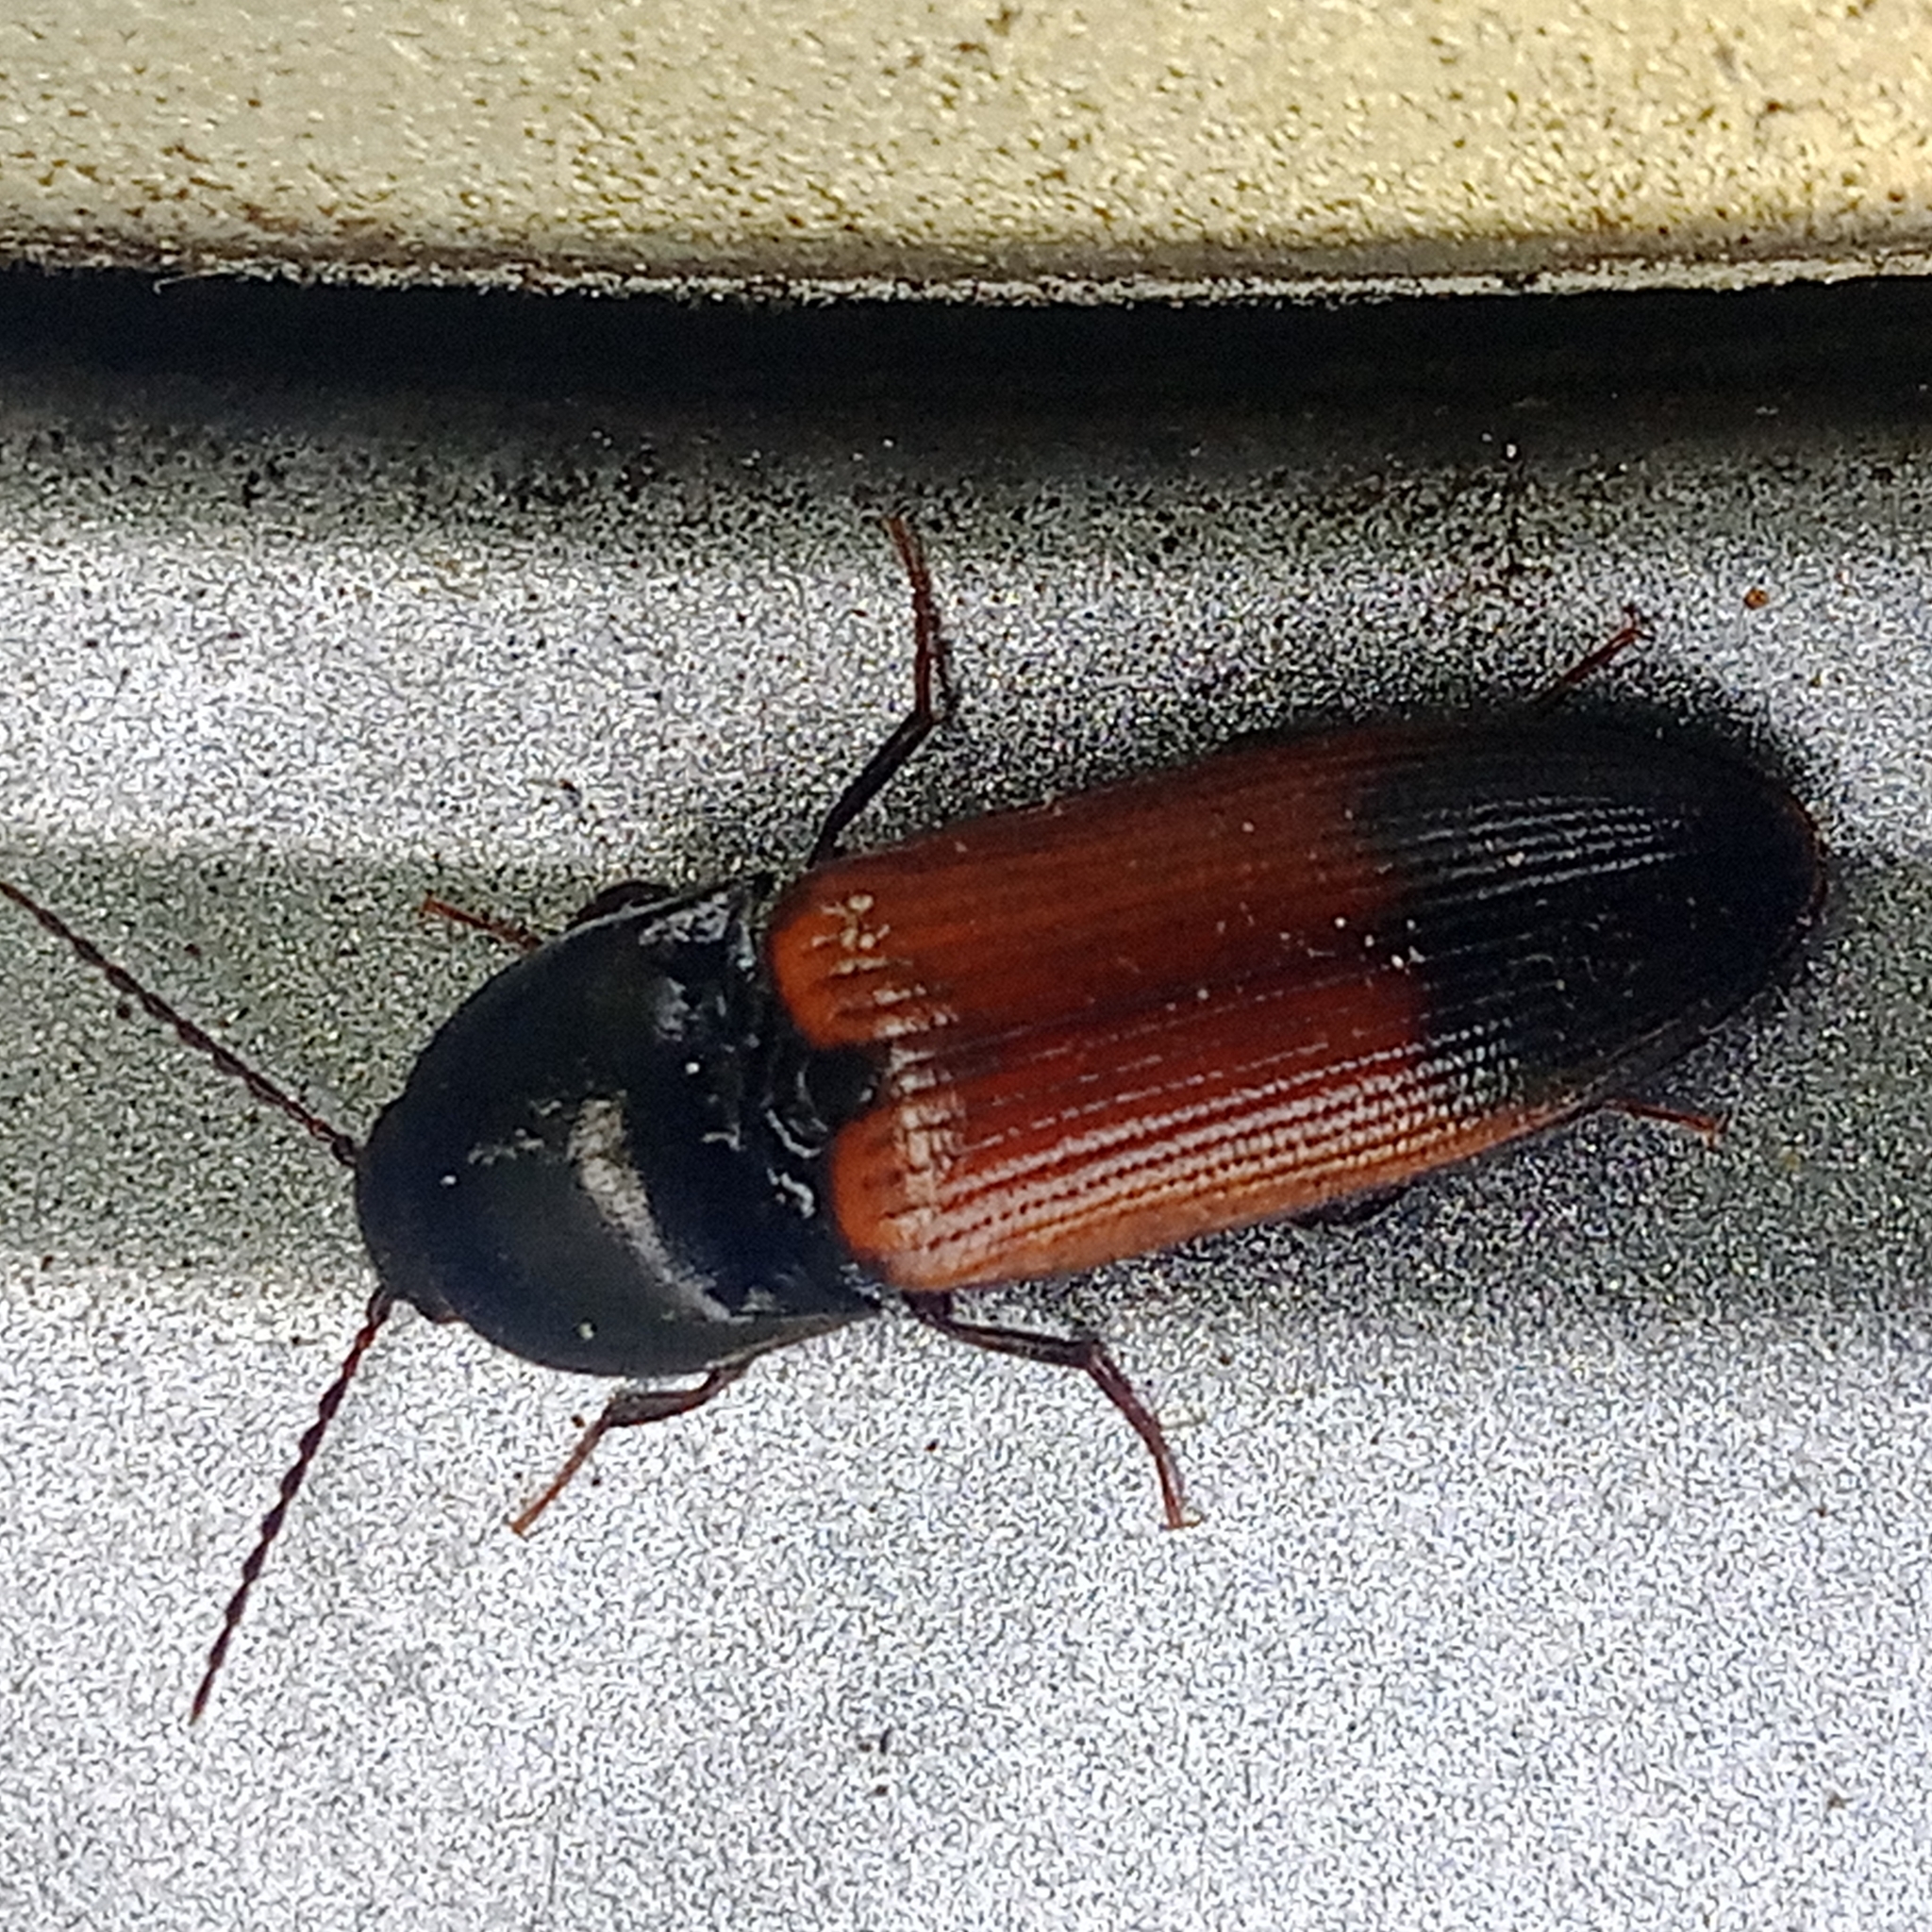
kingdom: Animalia
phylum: Arthropoda
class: Insecta
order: Coleoptera
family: Elateridae
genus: Ampedus
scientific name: Ampedus balteatus
